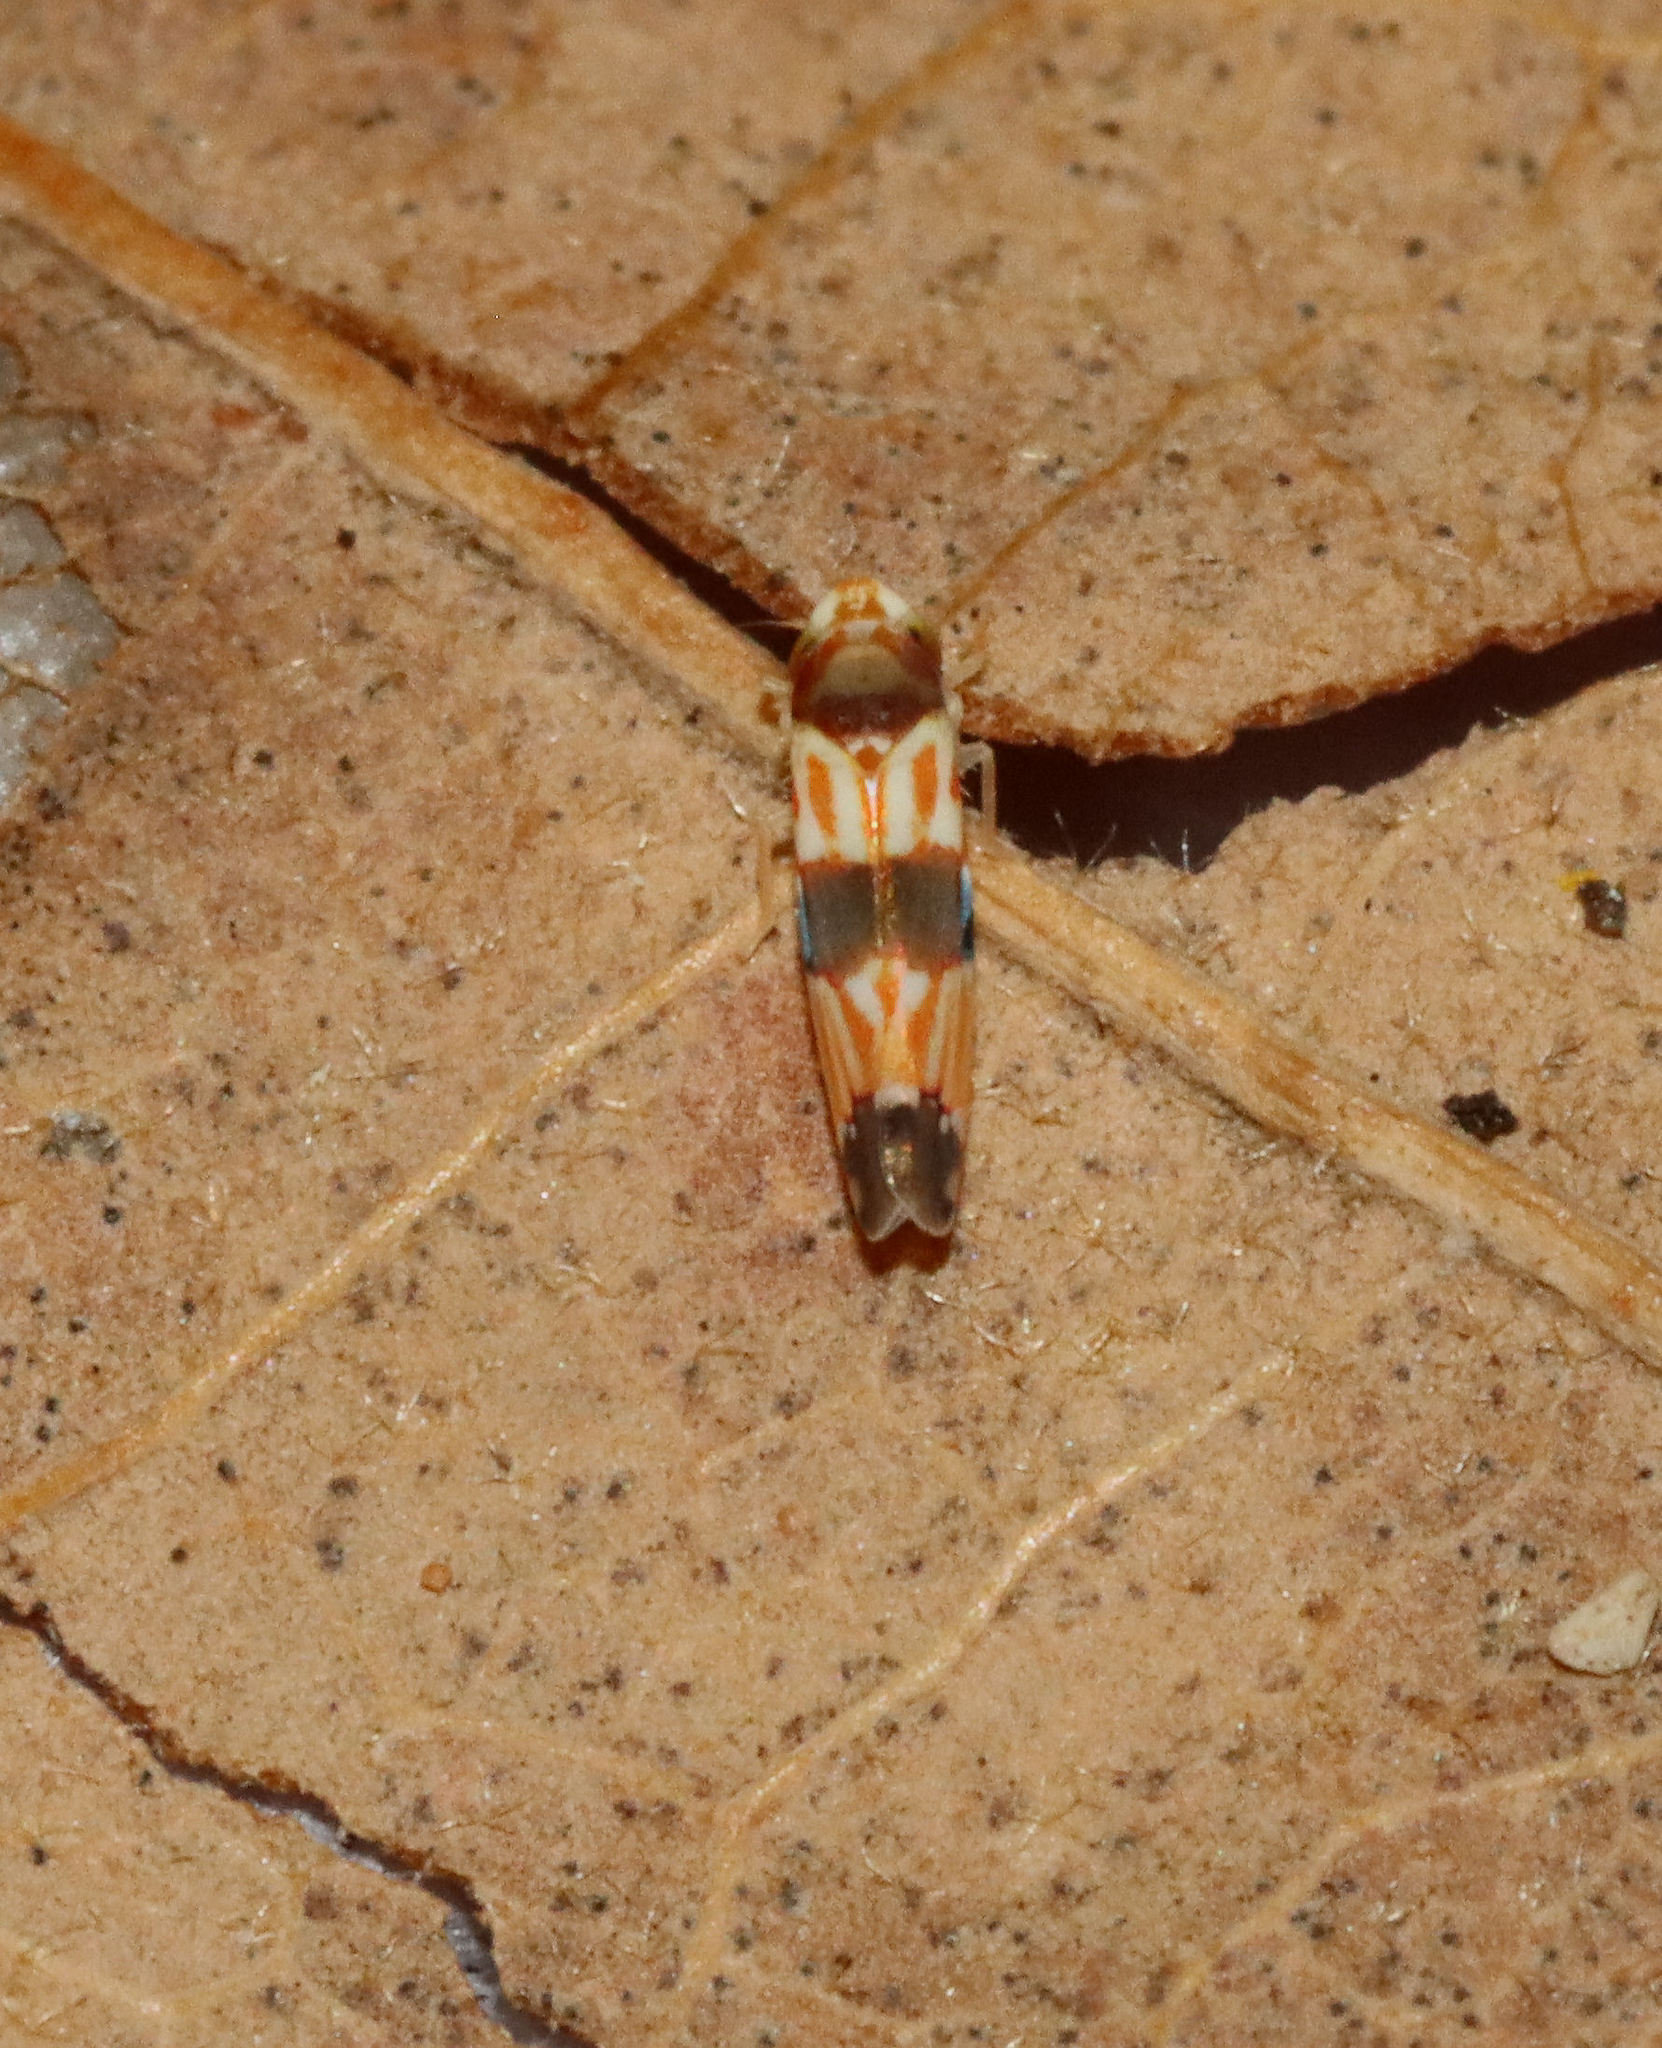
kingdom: Animalia
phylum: Arthropoda
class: Insecta
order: Hemiptera
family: Cicadellidae
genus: Erythroneura
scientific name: Erythroneura carinata
